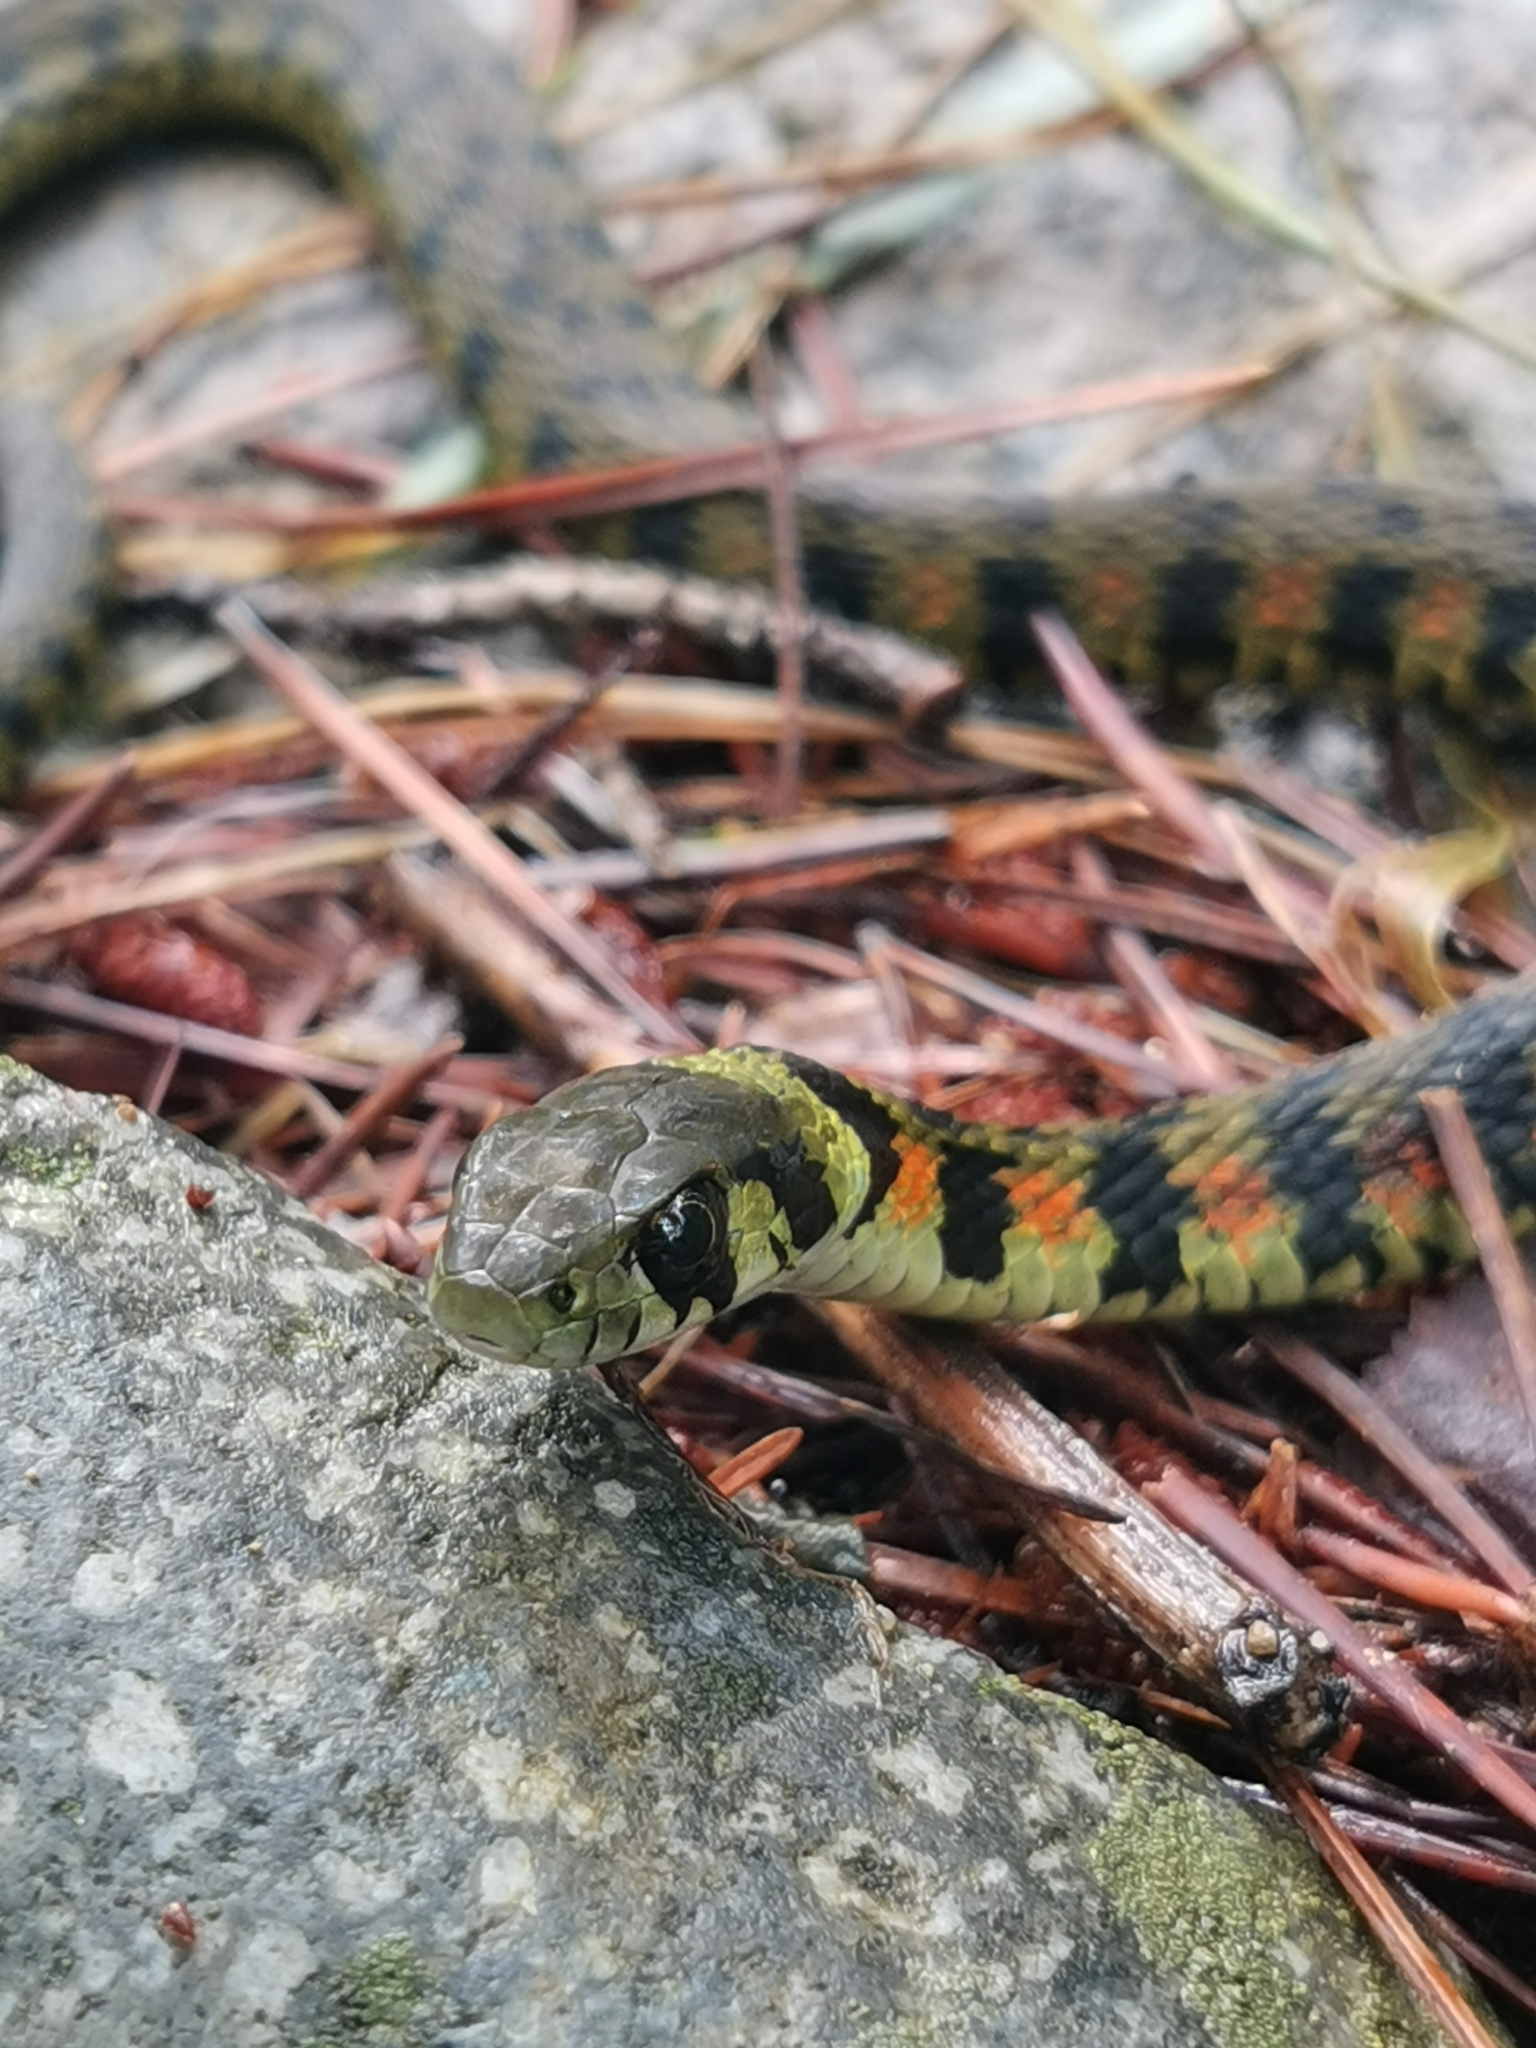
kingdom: Animalia
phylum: Chordata
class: Squamata
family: Colubridae
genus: Rhabdophis
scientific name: Rhabdophis tigrinus
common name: Tiger keelback
